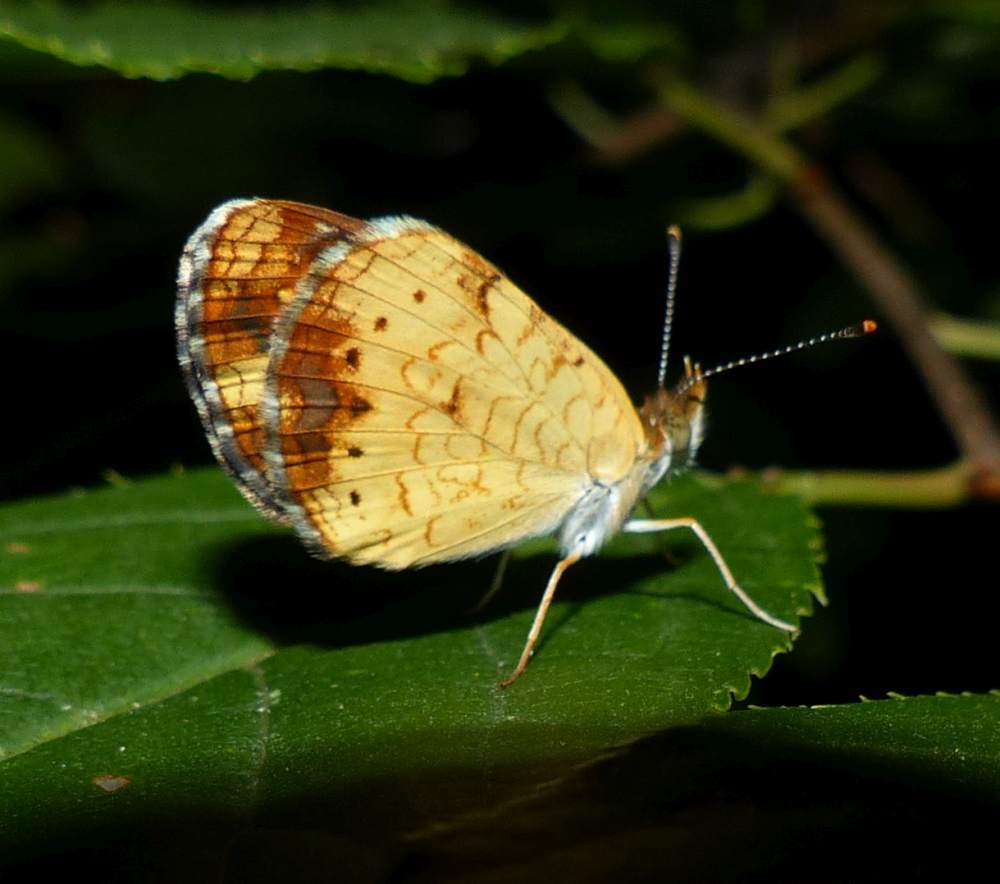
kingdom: Animalia
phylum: Arthropoda
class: Insecta
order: Lepidoptera
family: Nymphalidae
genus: Phyciodes
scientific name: Phyciodes tharos
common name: Pearl crescent
